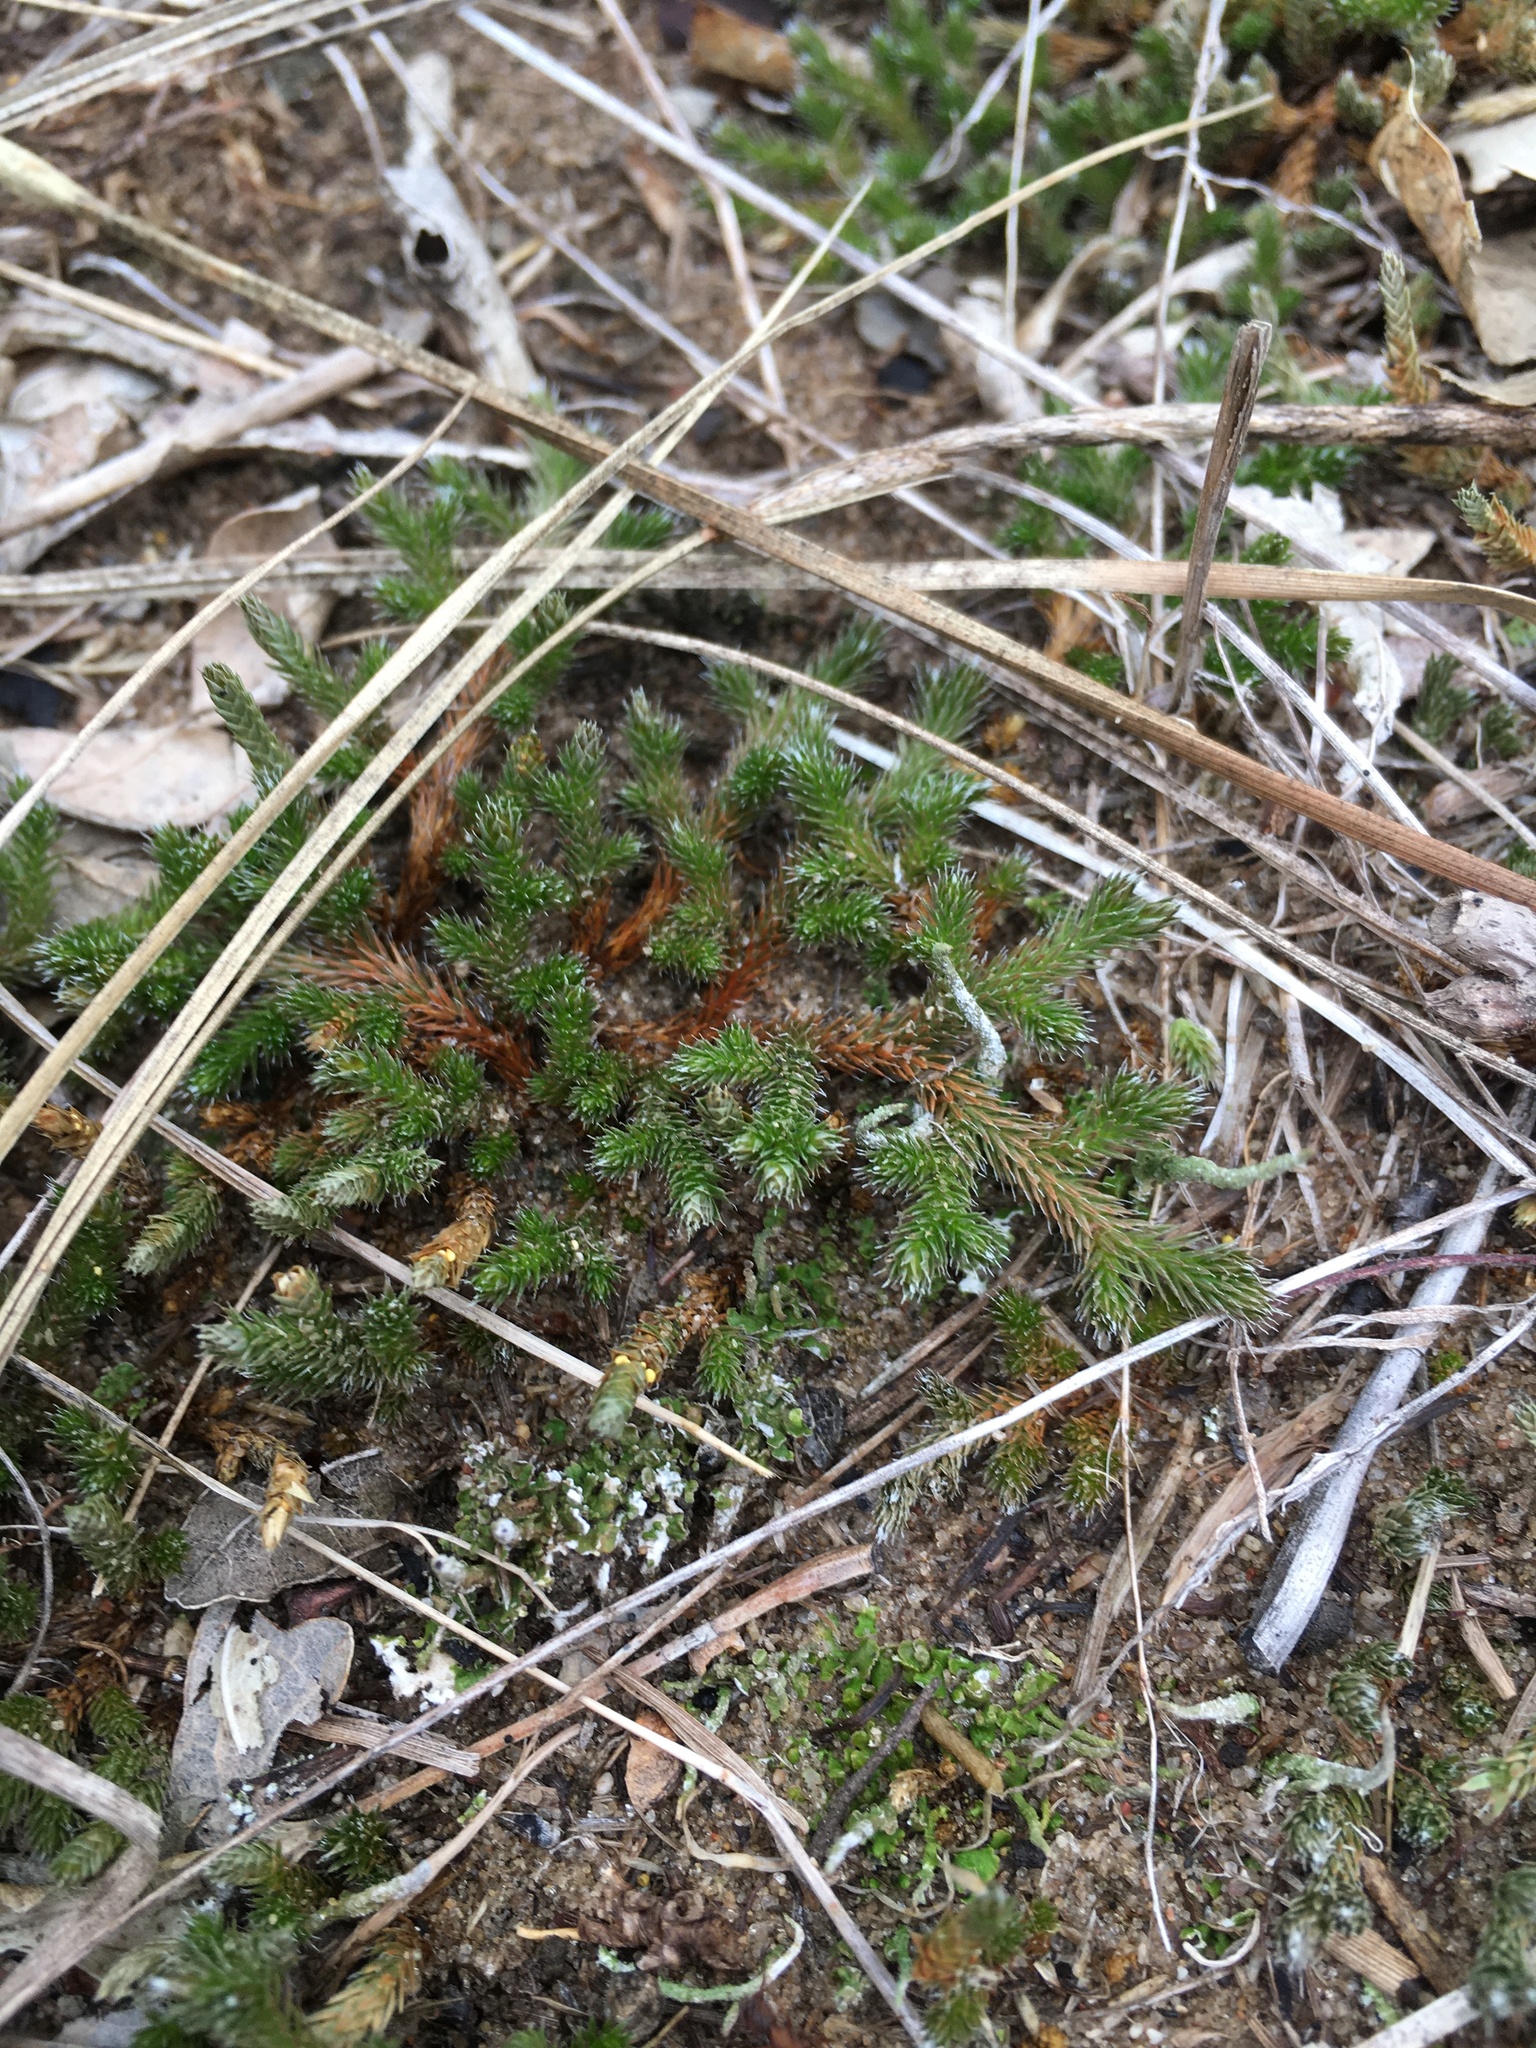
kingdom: Plantae
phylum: Tracheophyta
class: Lycopodiopsida
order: Selaginellales
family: Selaginellaceae
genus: Selaginella
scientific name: Selaginella rupestris
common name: Dwarf spikemoss
